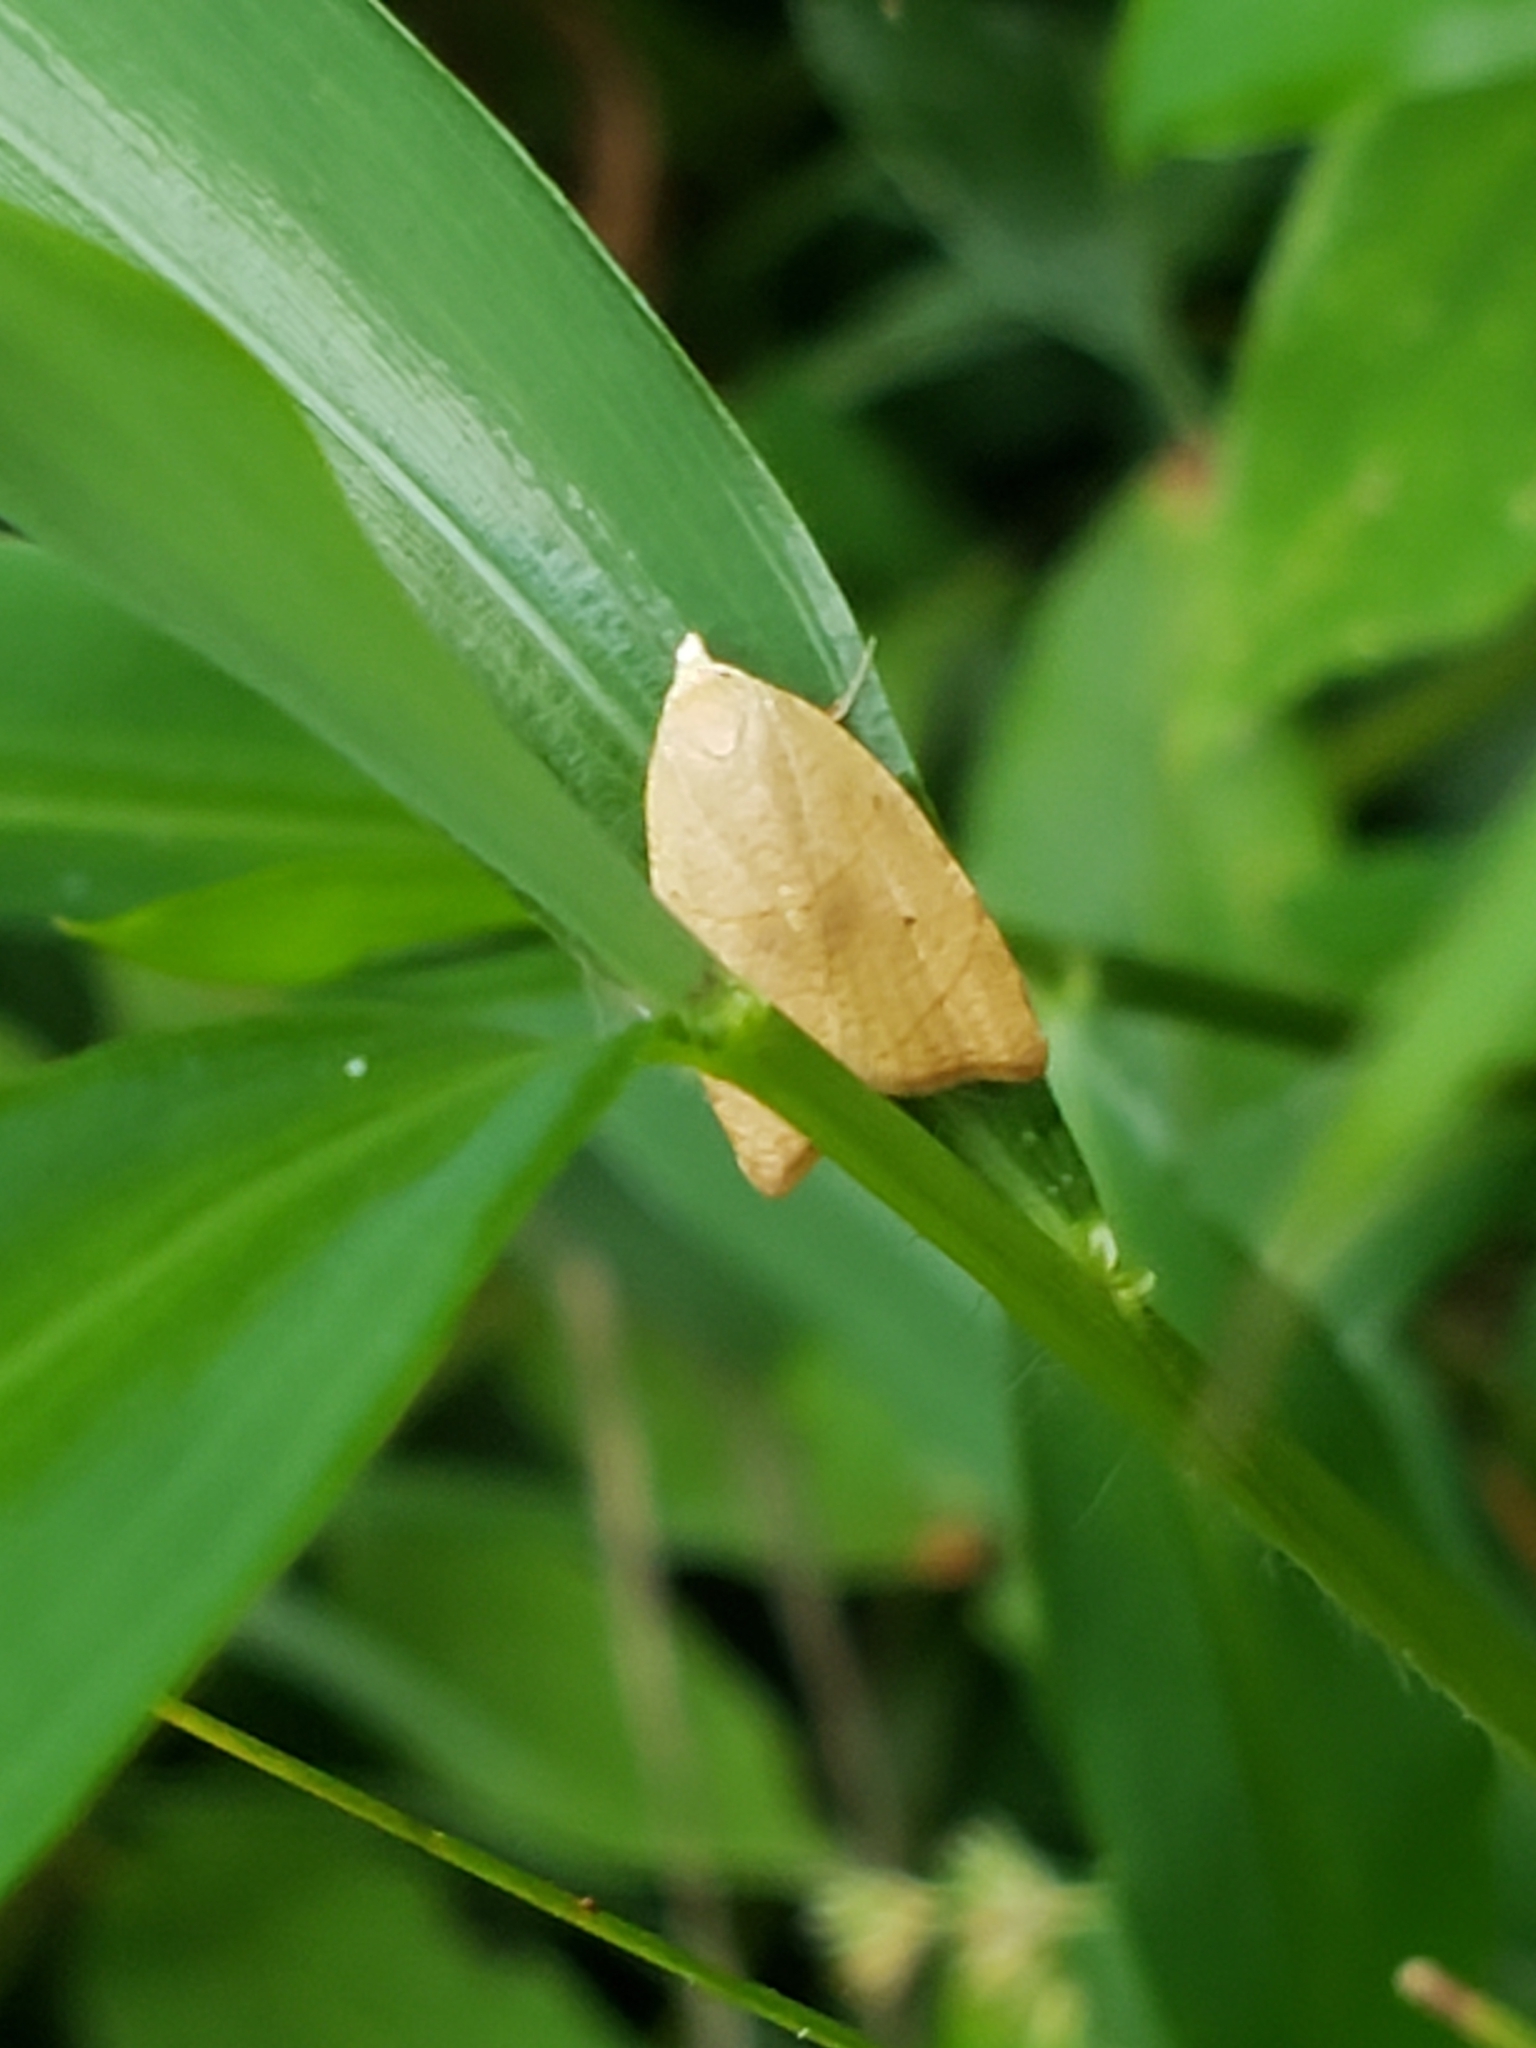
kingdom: Animalia
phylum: Arthropoda
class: Insecta
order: Lepidoptera
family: Tortricidae
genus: Coelostathma
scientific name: Coelostathma discopunctana
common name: Batman moth
